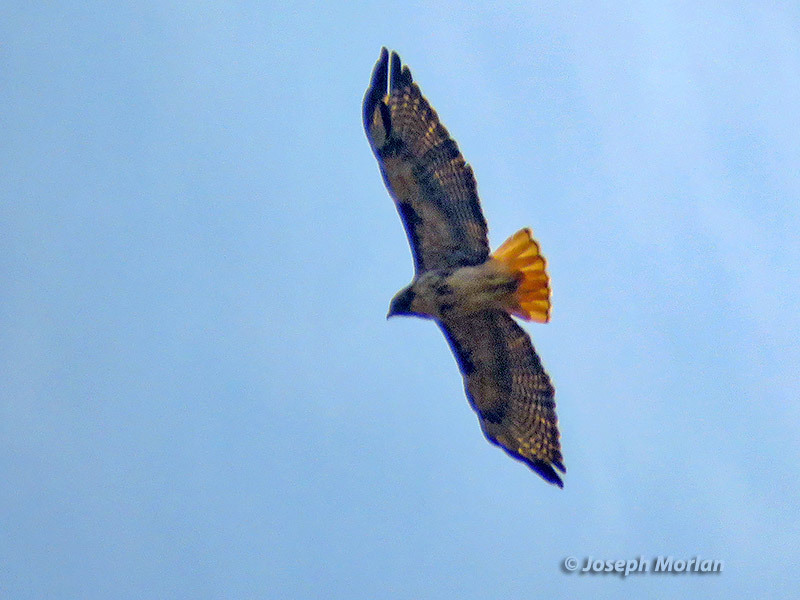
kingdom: Animalia
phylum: Chordata
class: Aves
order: Accipitriformes
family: Accipitridae
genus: Buteo
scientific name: Buteo jamaicensis
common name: Red-tailed hawk
